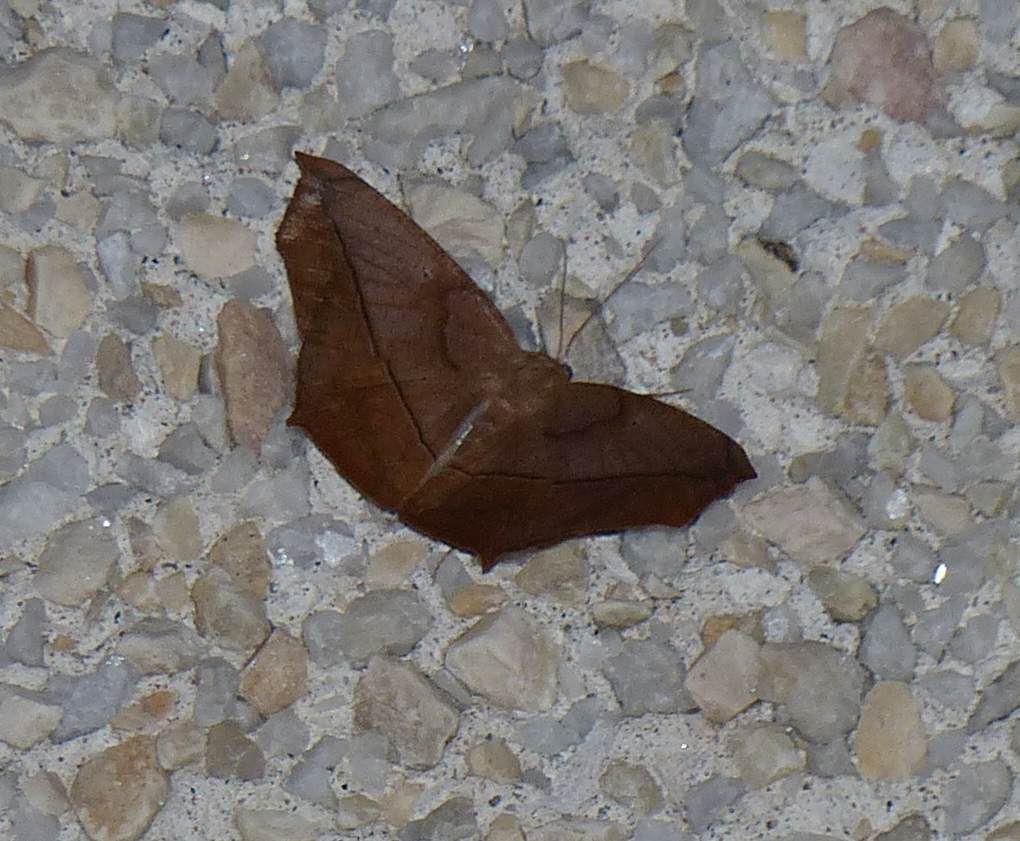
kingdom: Animalia
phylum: Arthropoda
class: Insecta
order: Lepidoptera
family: Geometridae
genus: Prochoerodes
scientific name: Prochoerodes lineola
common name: Large maple spanworm
